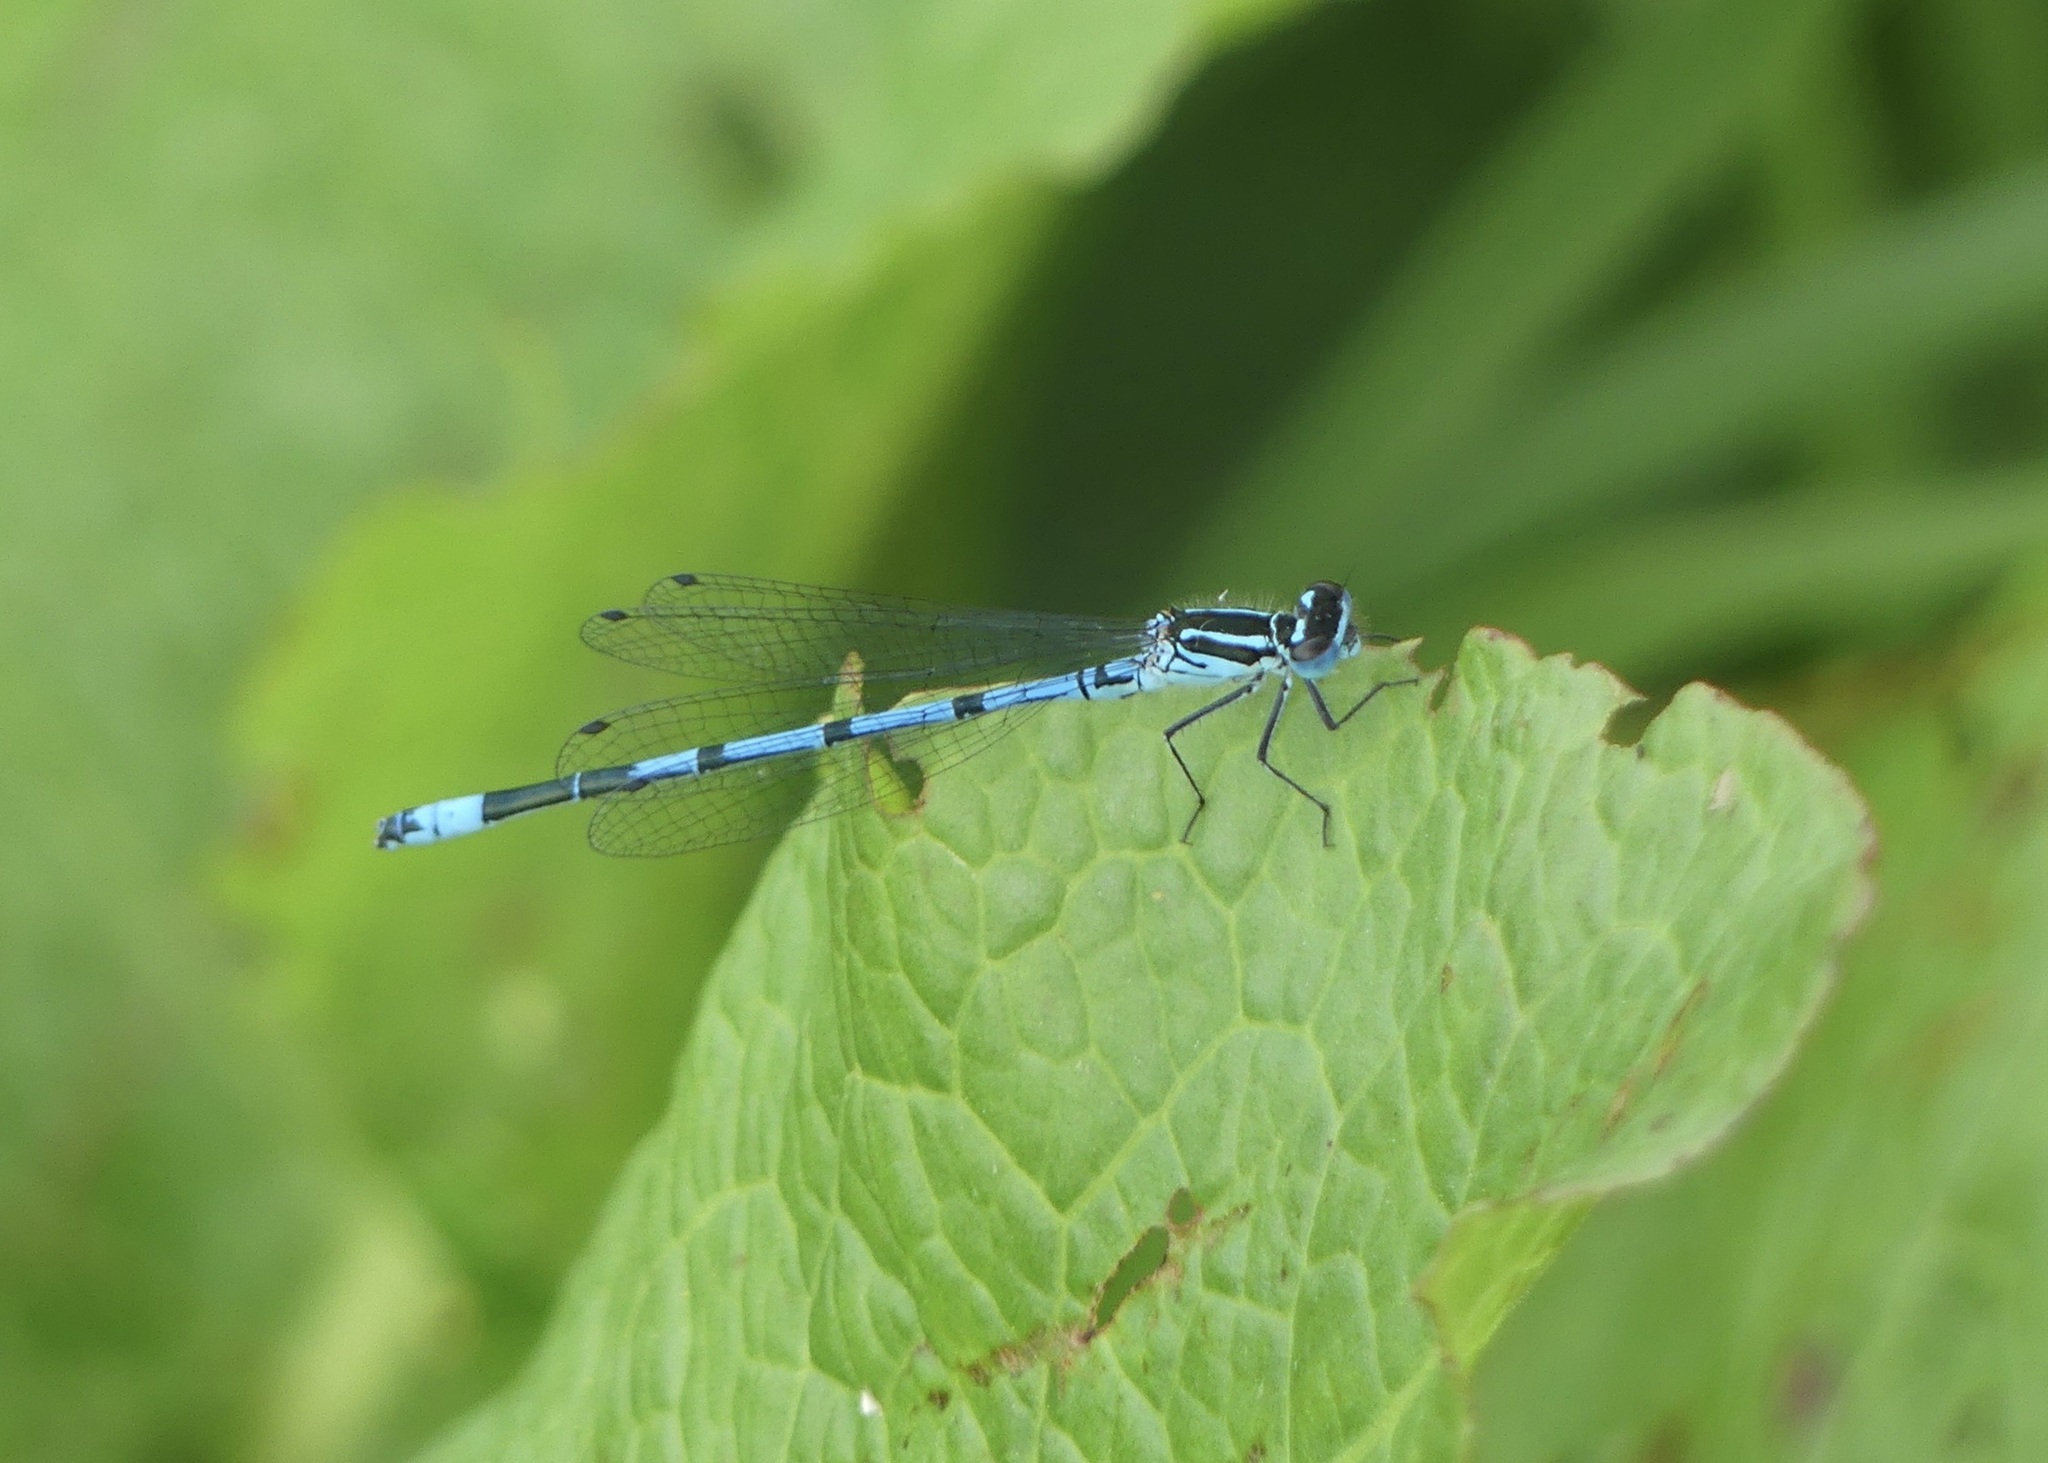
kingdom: Animalia
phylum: Arthropoda
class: Insecta
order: Odonata
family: Coenagrionidae
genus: Coenagrion
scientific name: Coenagrion puella
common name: Azure damselfly
